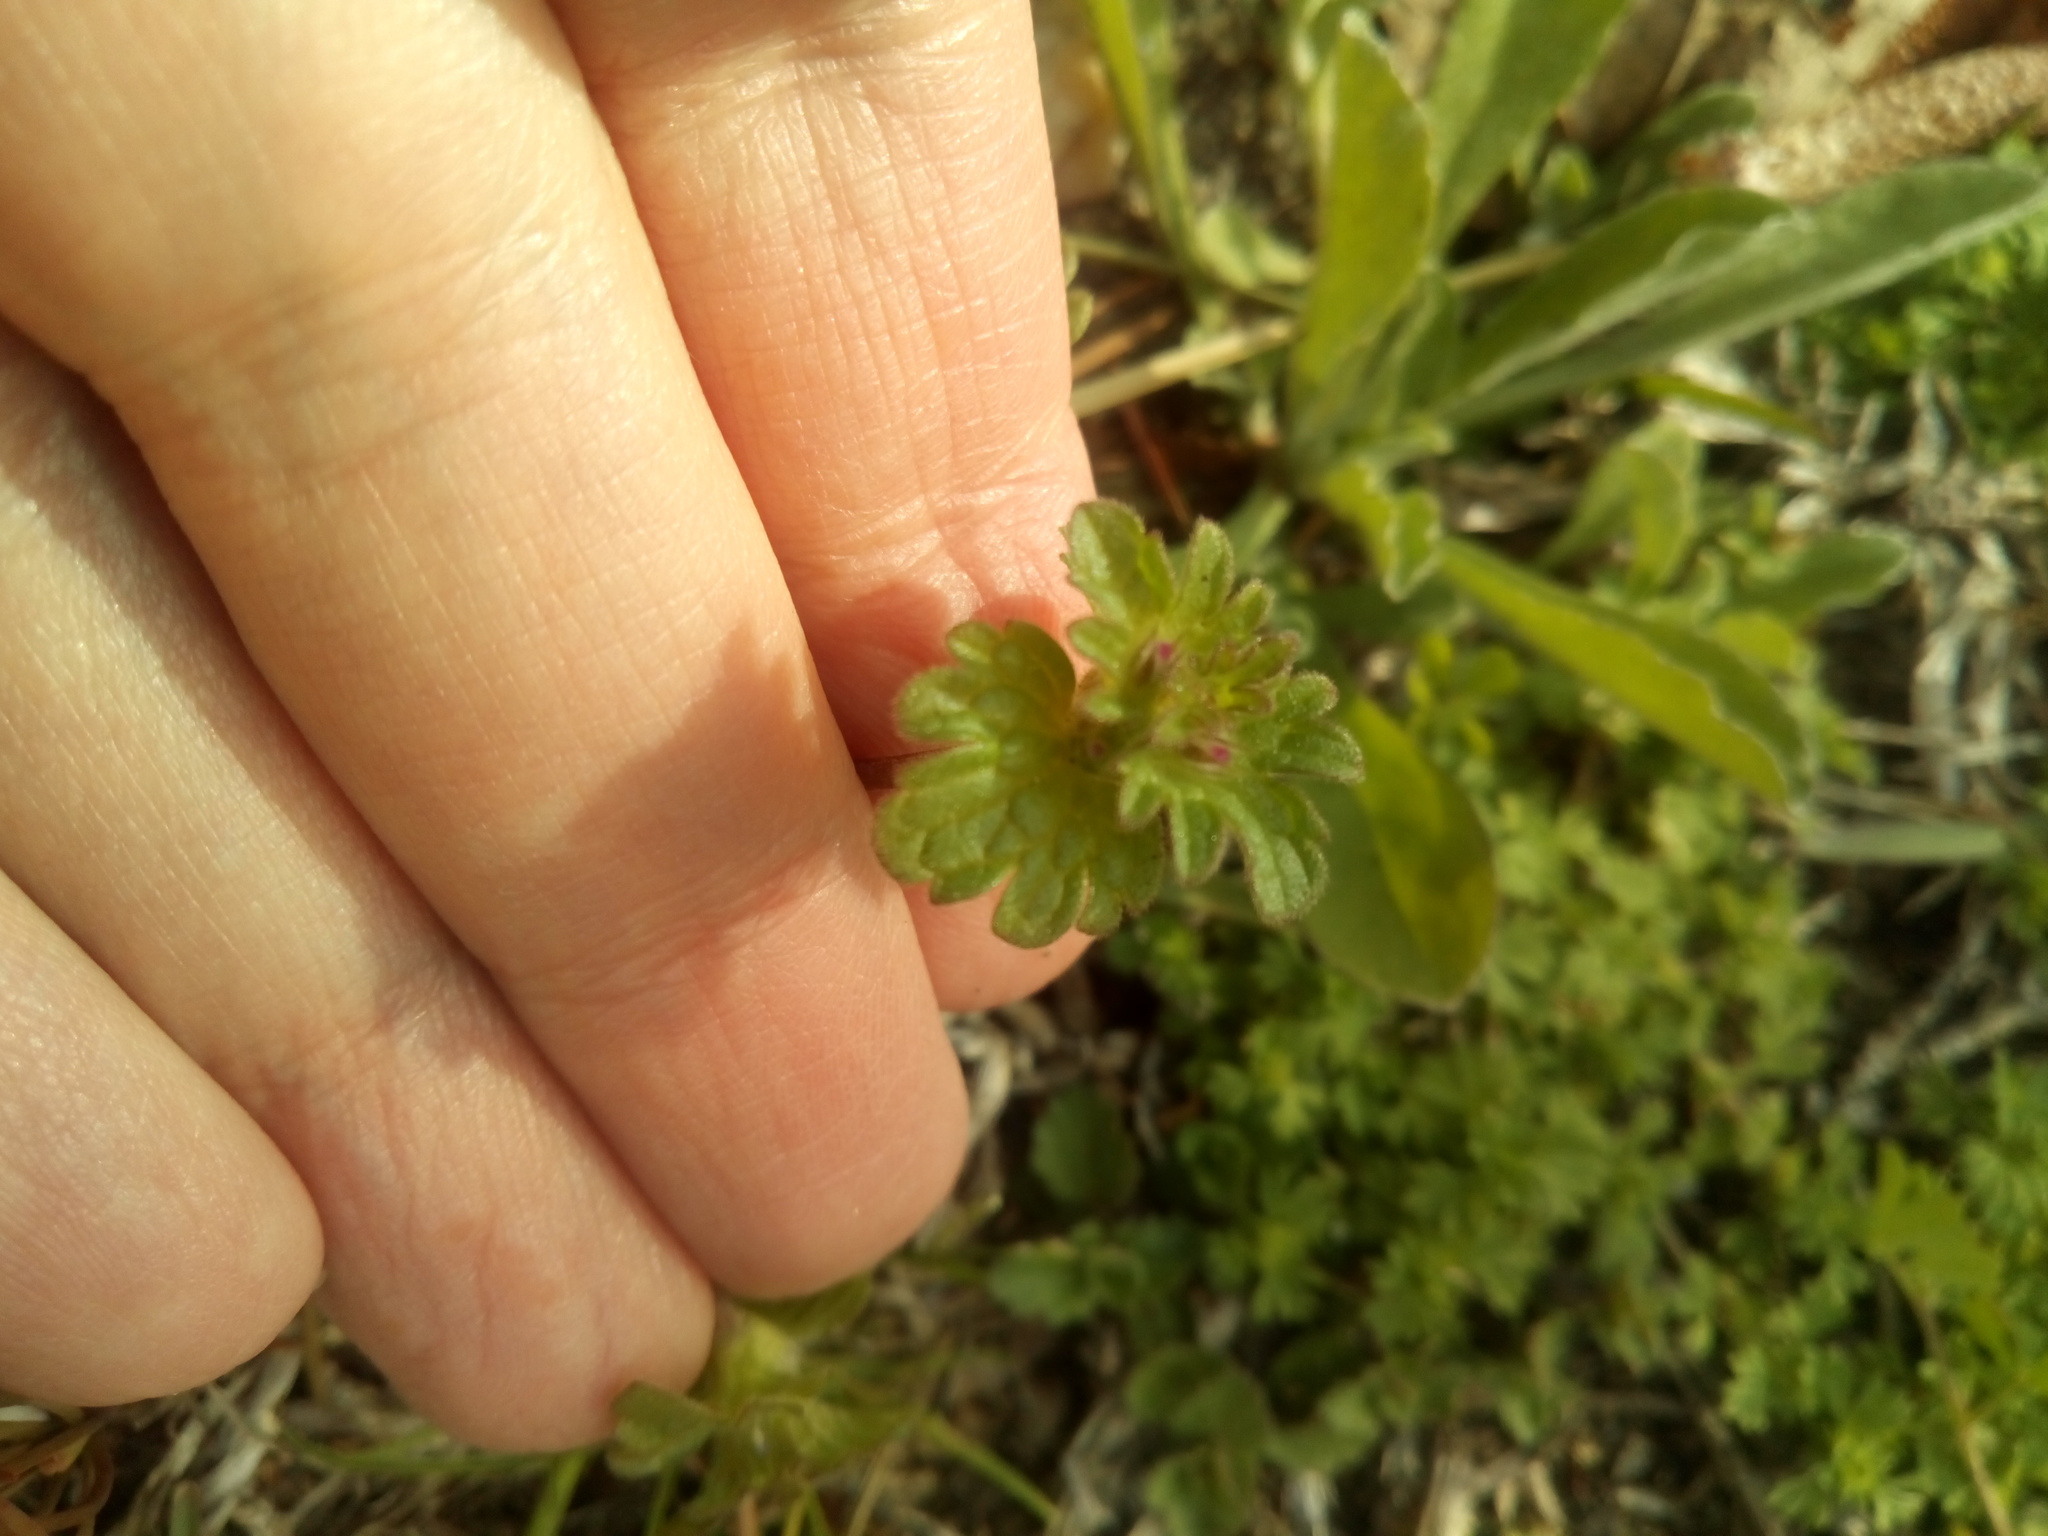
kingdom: Plantae
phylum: Tracheophyta
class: Magnoliopsida
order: Lamiales
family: Lamiaceae
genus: Lamium
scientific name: Lamium amplexicaule
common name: Henbit dead-nettle
